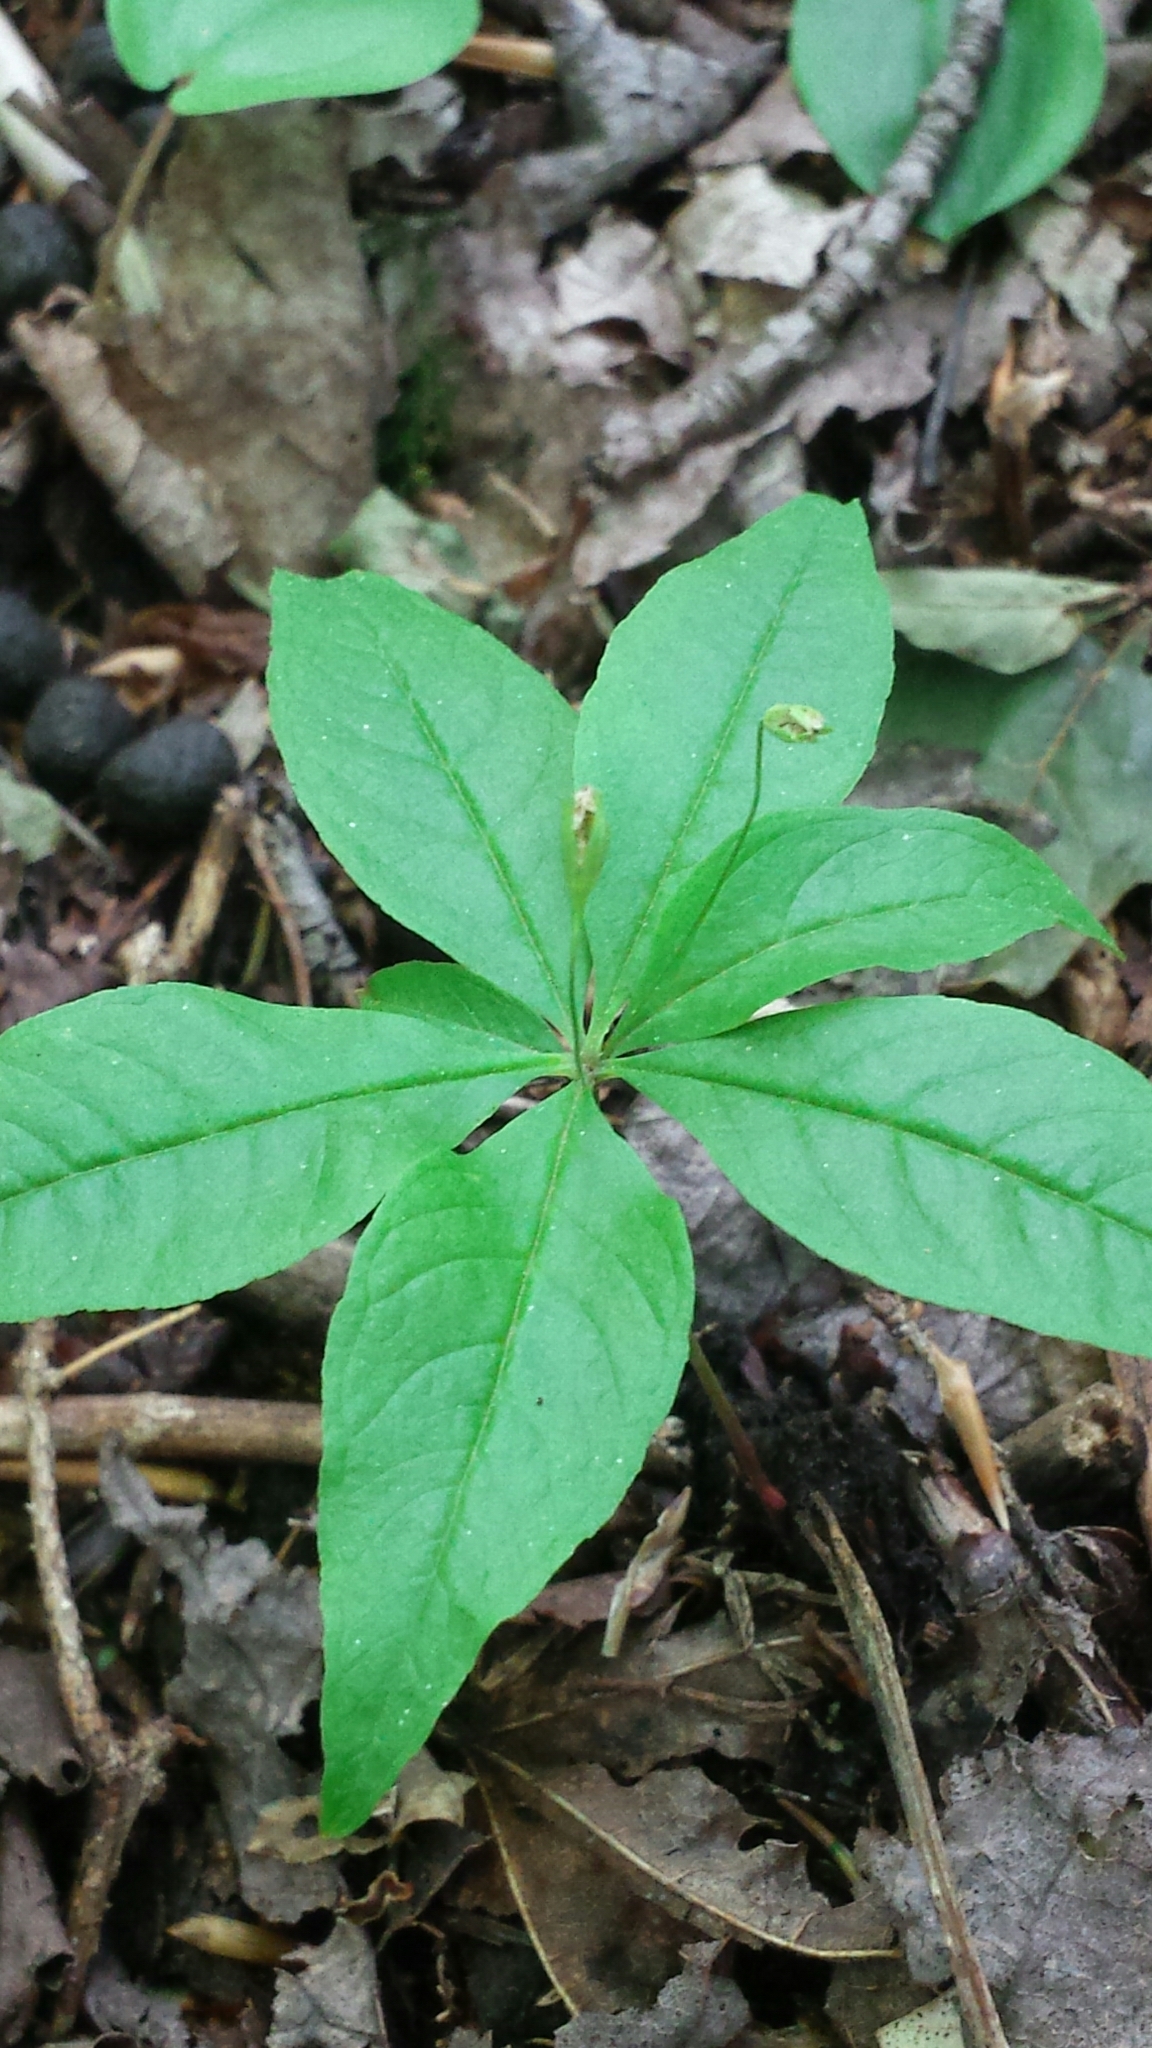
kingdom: Plantae
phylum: Tracheophyta
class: Magnoliopsida
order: Ericales
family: Primulaceae
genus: Lysimachia
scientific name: Lysimachia borealis
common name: American starflower
